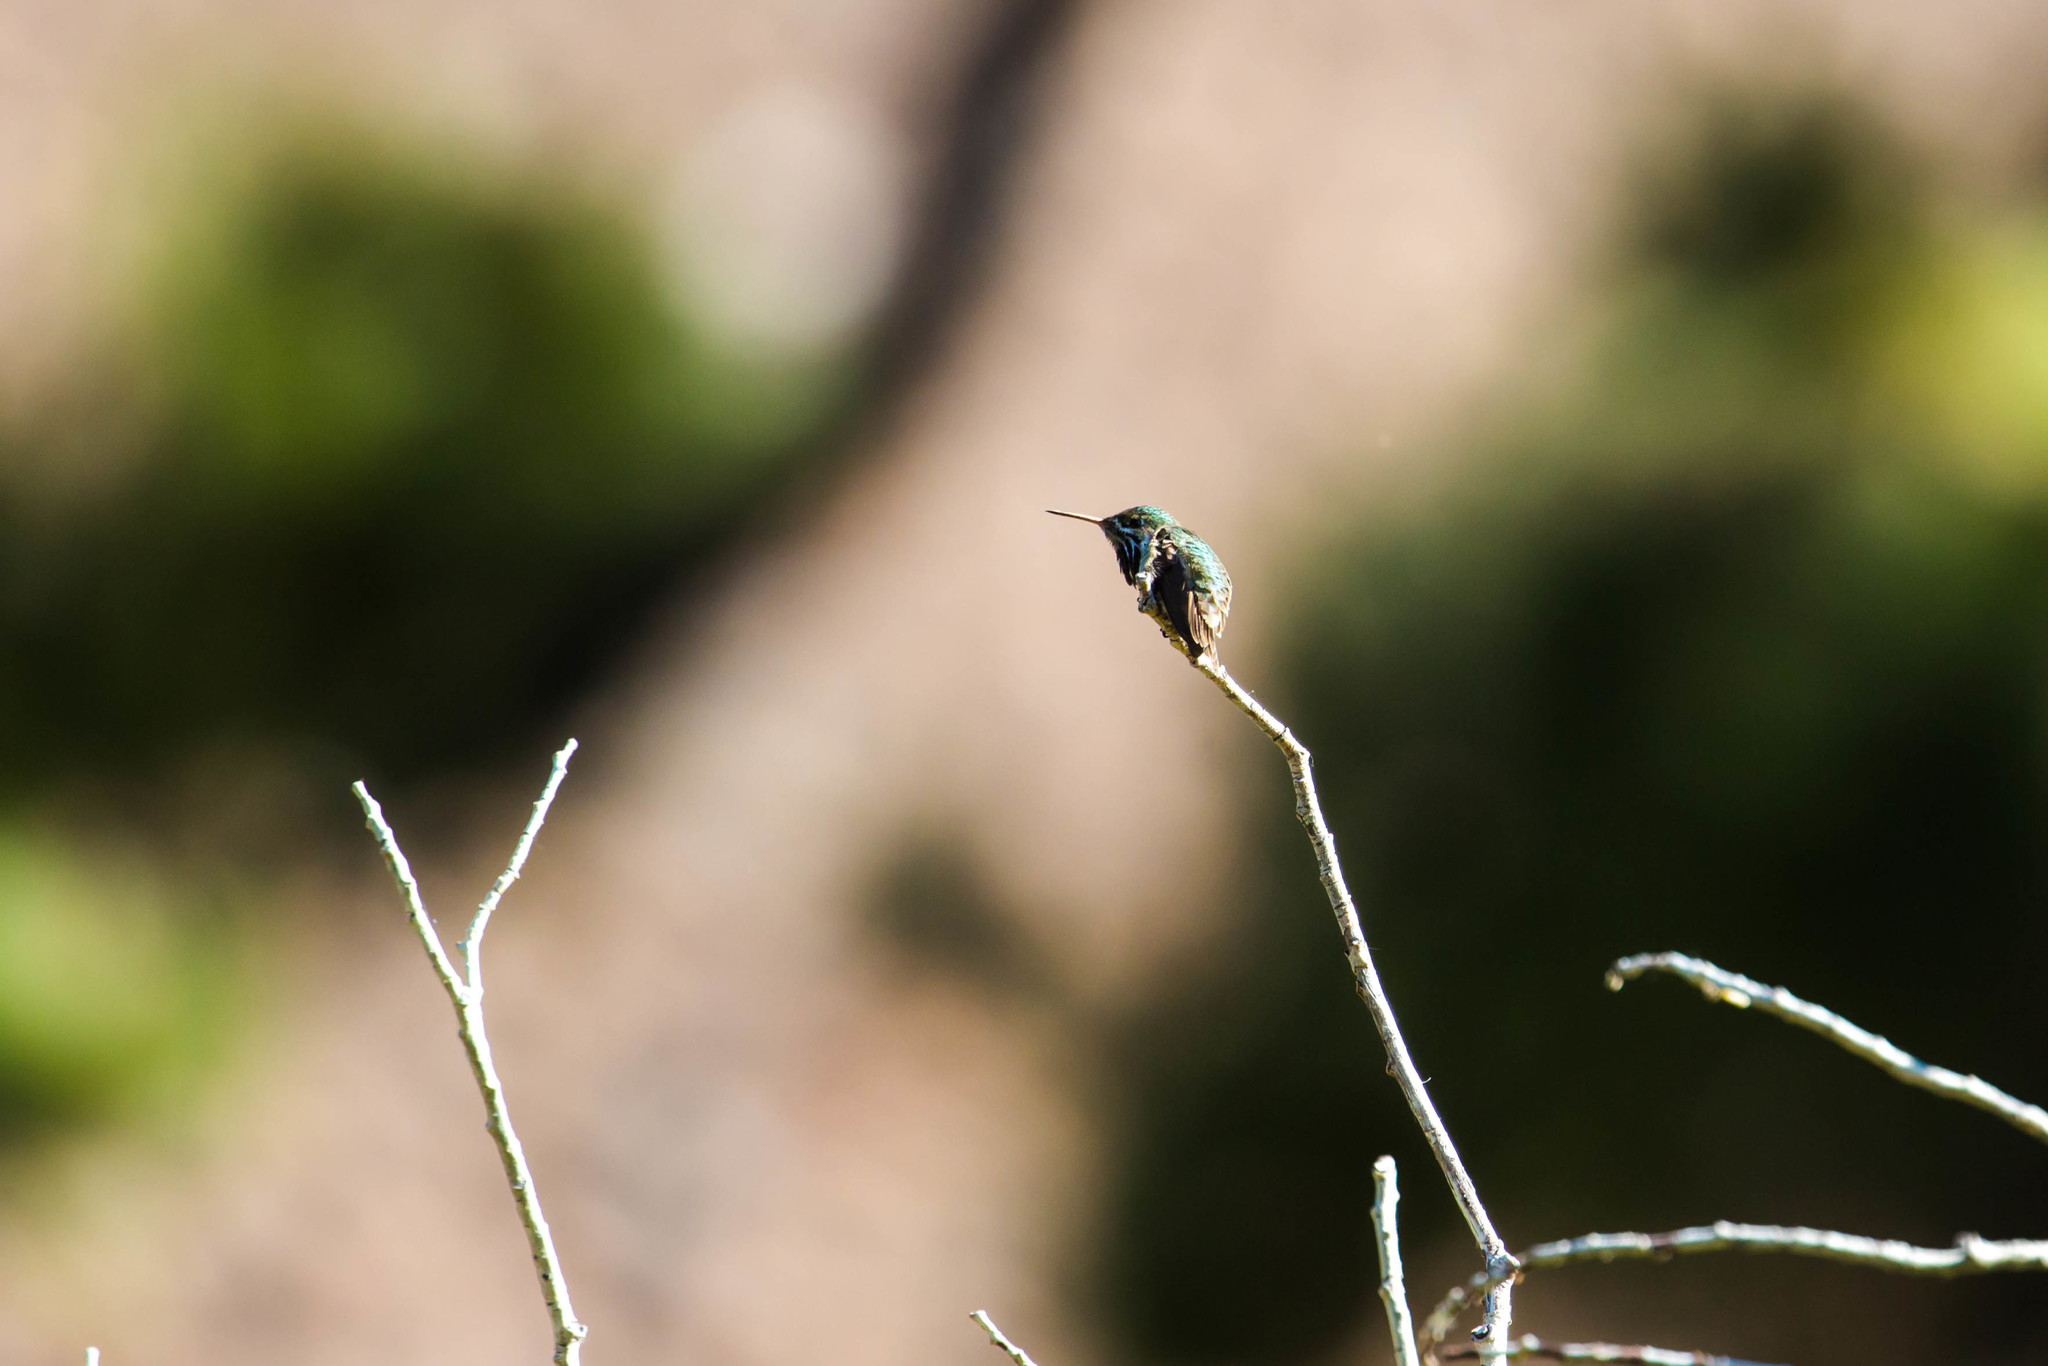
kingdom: Animalia
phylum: Chordata
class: Aves
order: Apodiformes
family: Trochilidae
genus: Selasphorus
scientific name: Selasphorus calliope
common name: Calliope hummingbird
